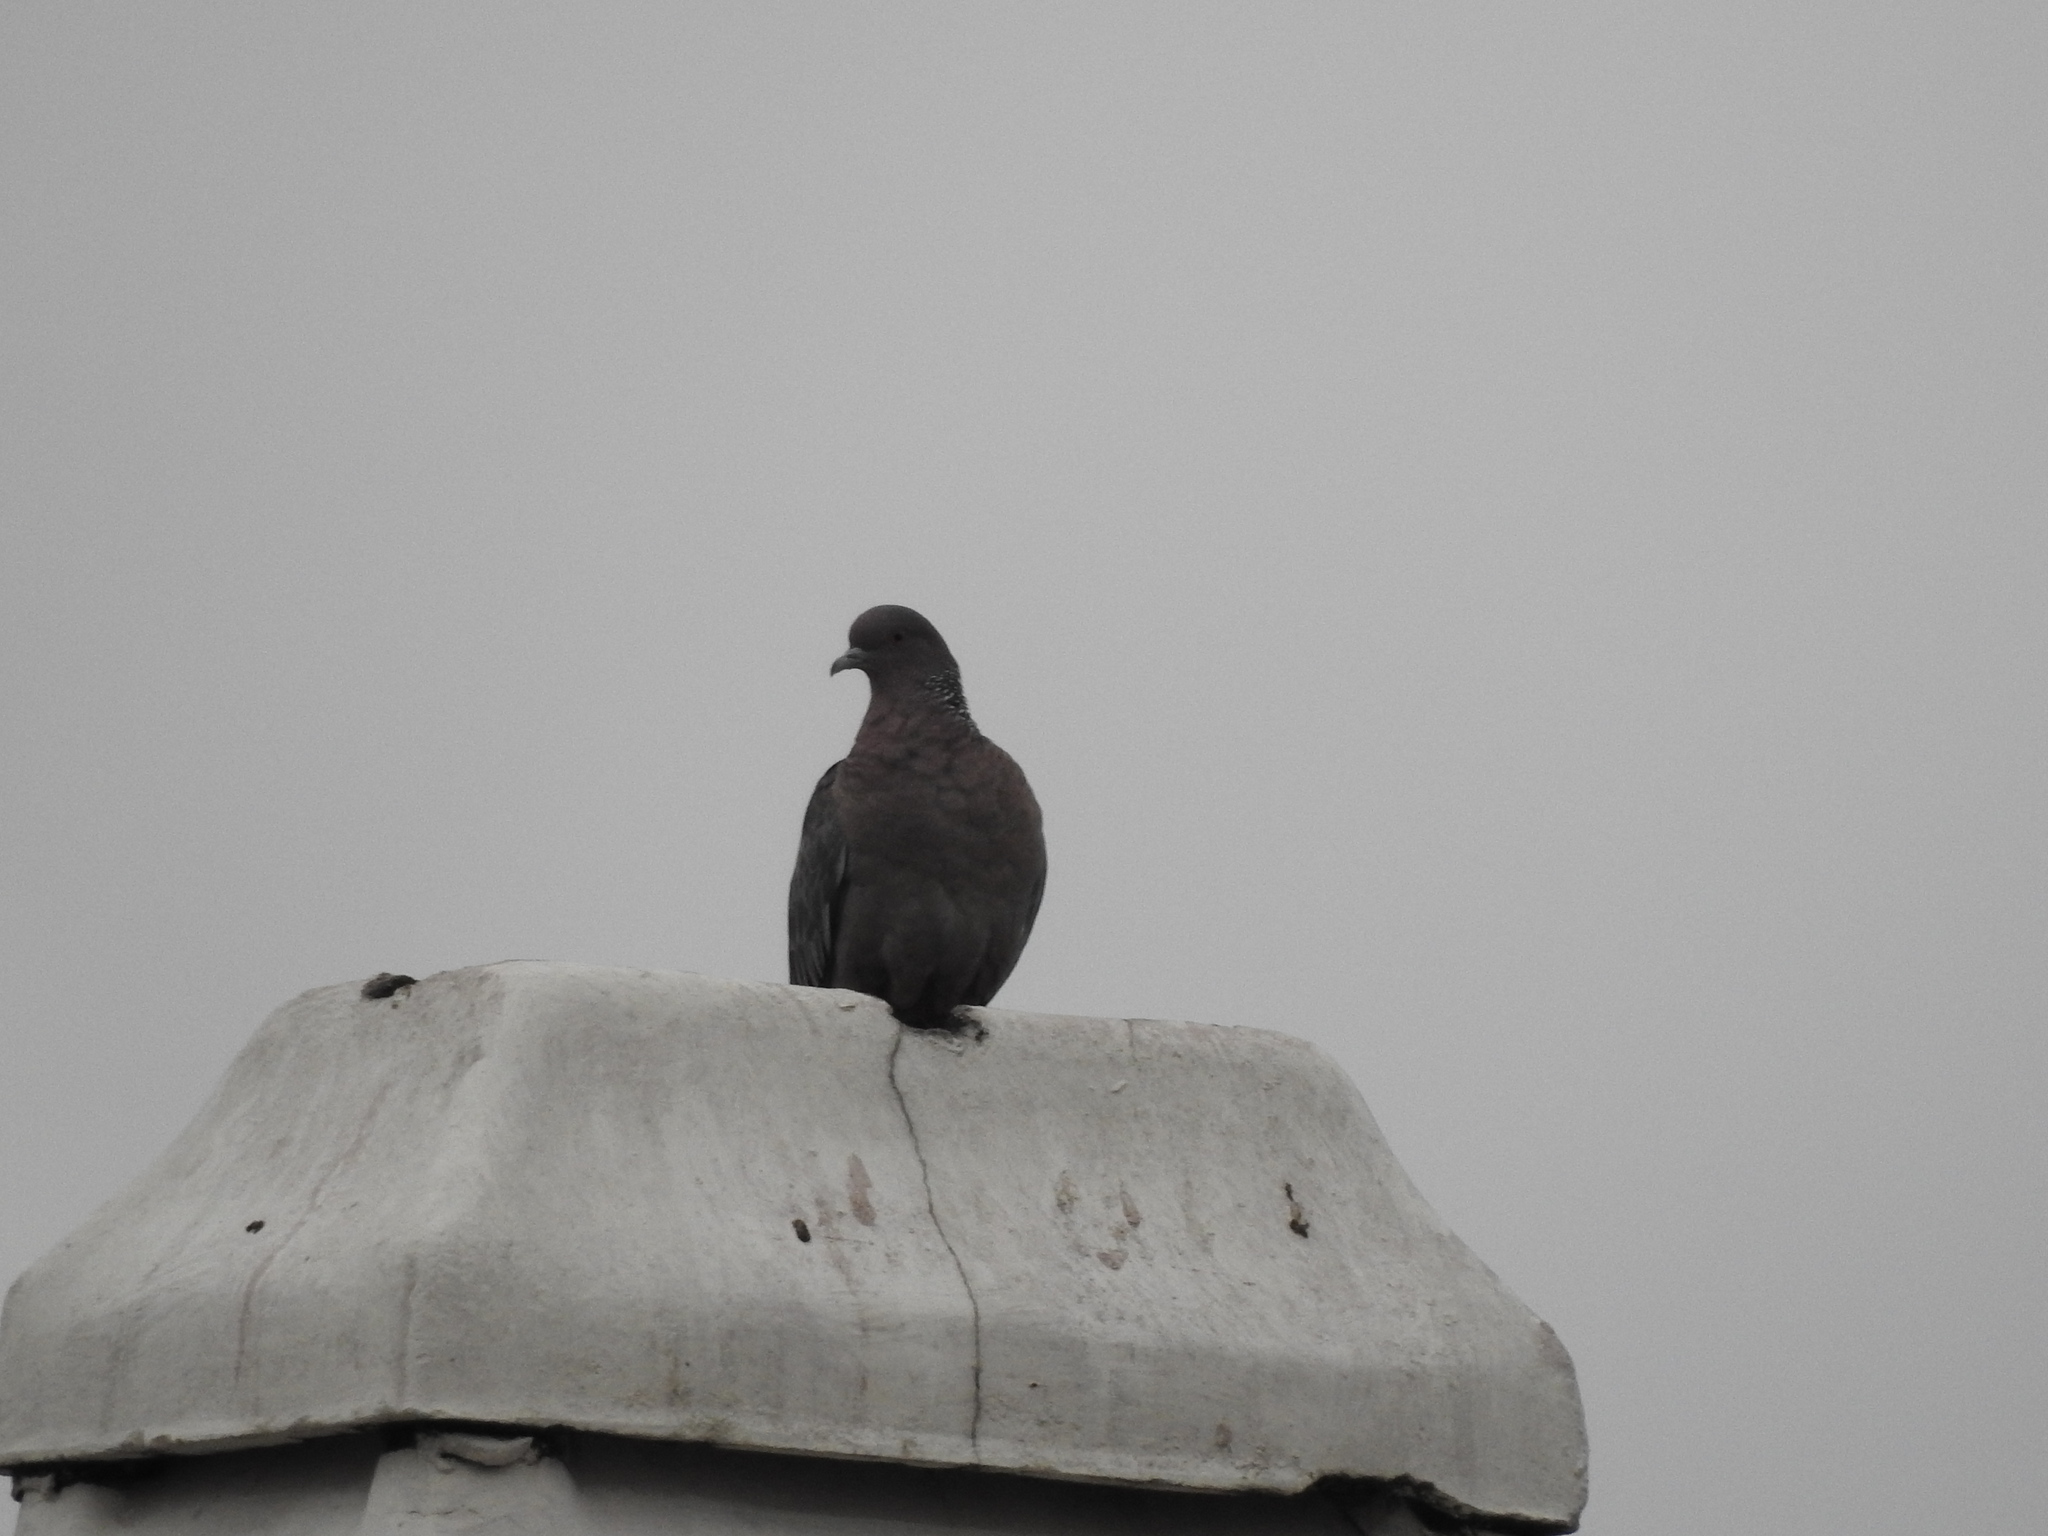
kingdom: Animalia
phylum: Chordata
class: Aves
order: Columbiformes
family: Columbidae
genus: Patagioenas
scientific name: Patagioenas picazuro
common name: Picazuro pigeon
